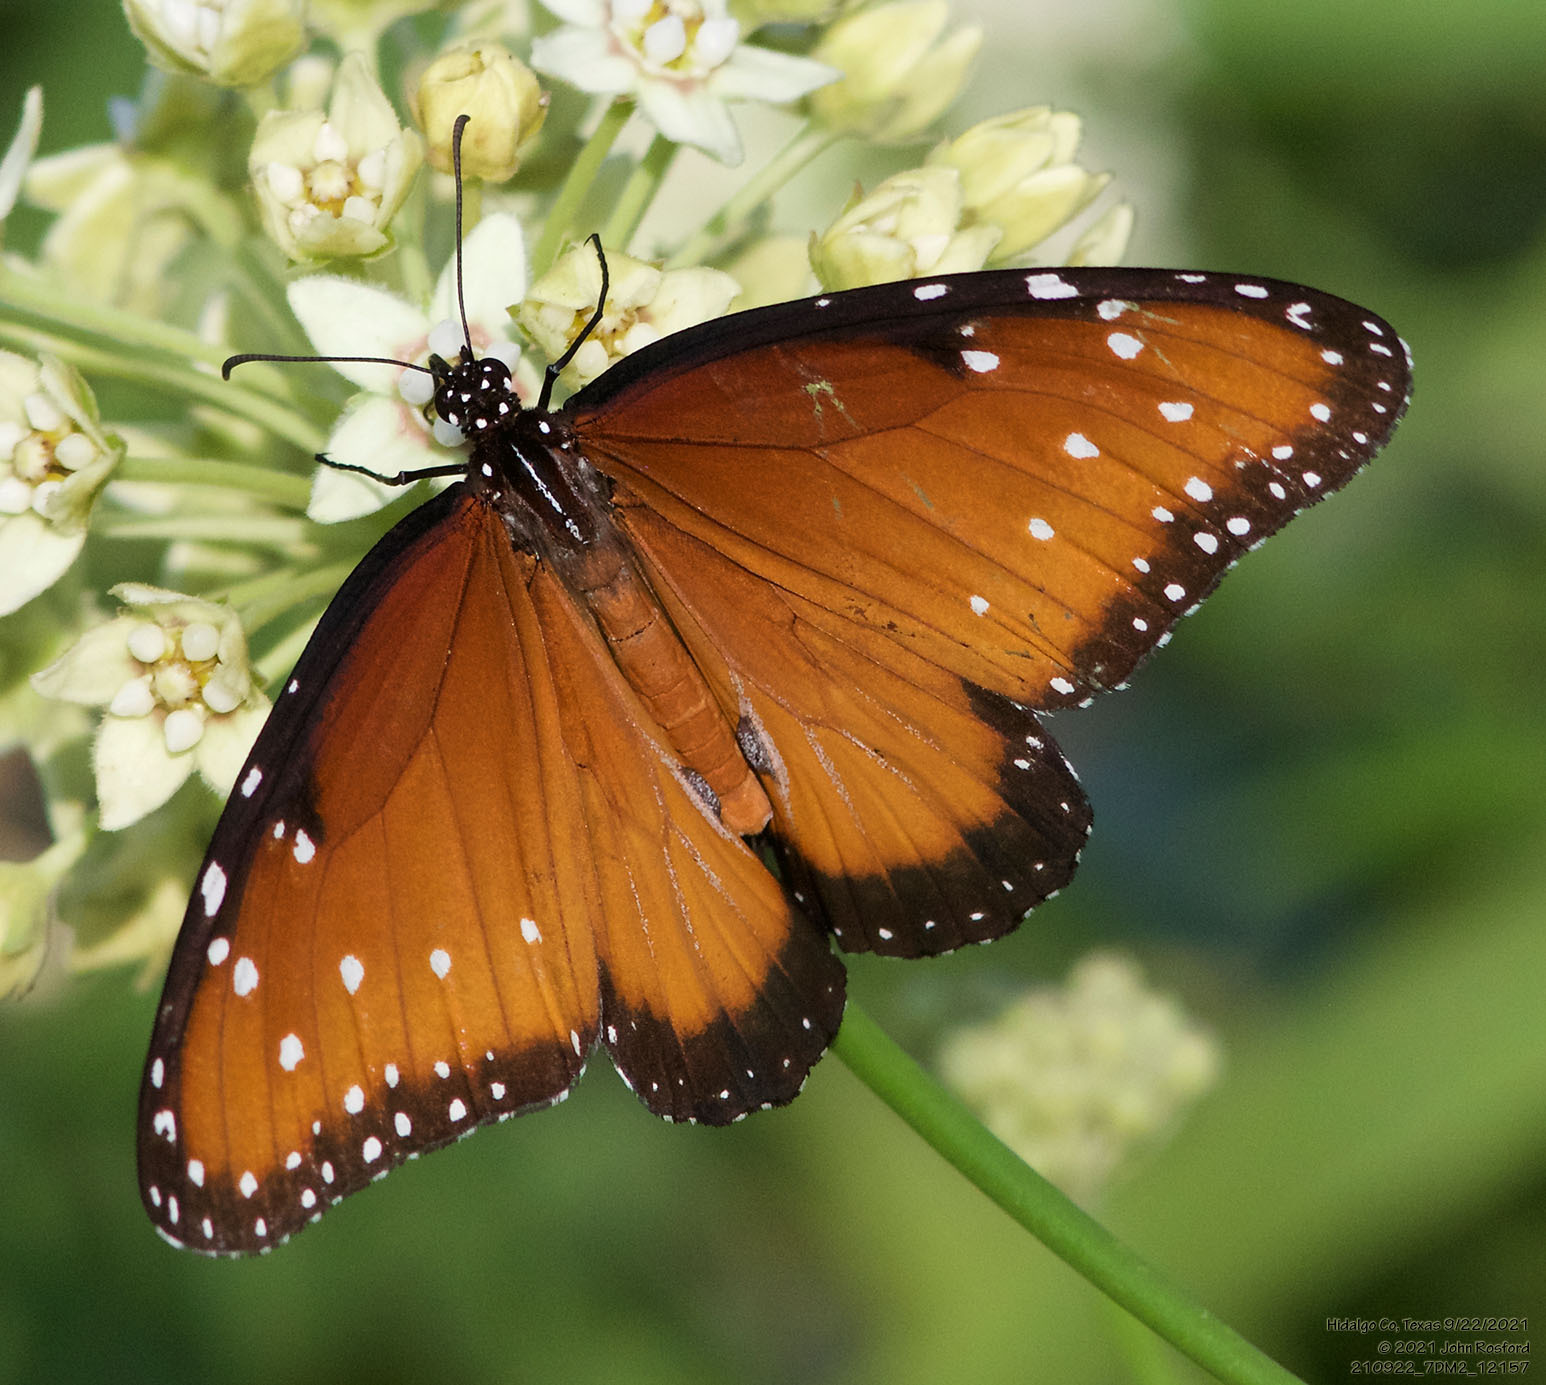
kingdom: Animalia
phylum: Arthropoda
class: Insecta
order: Lepidoptera
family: Nymphalidae
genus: Danaus
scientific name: Danaus gilippus
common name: Queen
